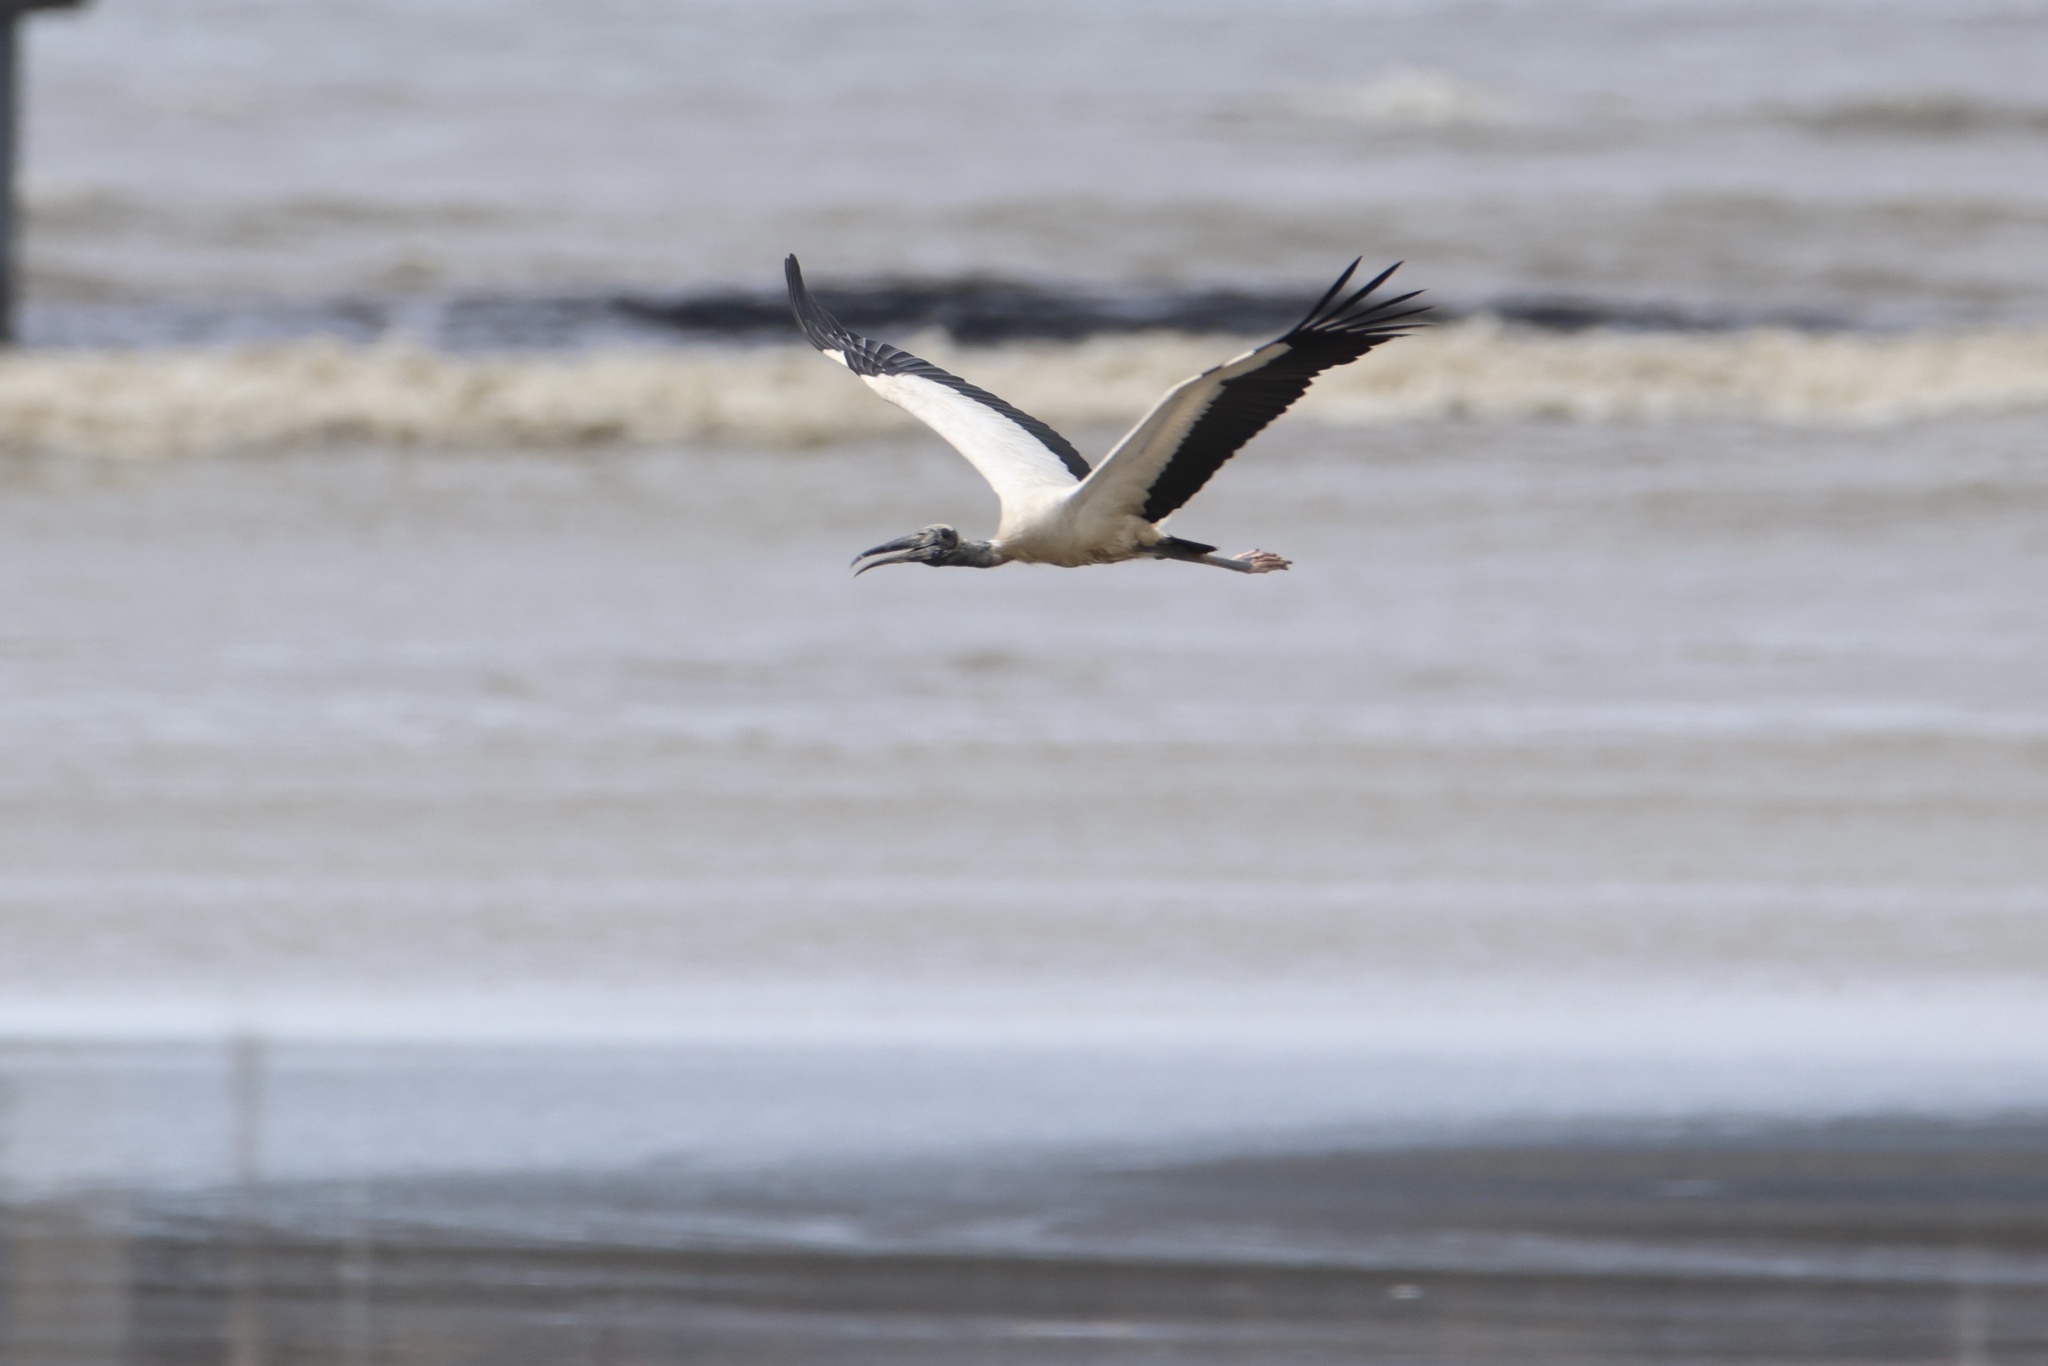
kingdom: Animalia
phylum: Chordata
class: Aves
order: Ciconiiformes
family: Ciconiidae
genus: Mycteria
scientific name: Mycteria americana
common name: Wood stork
